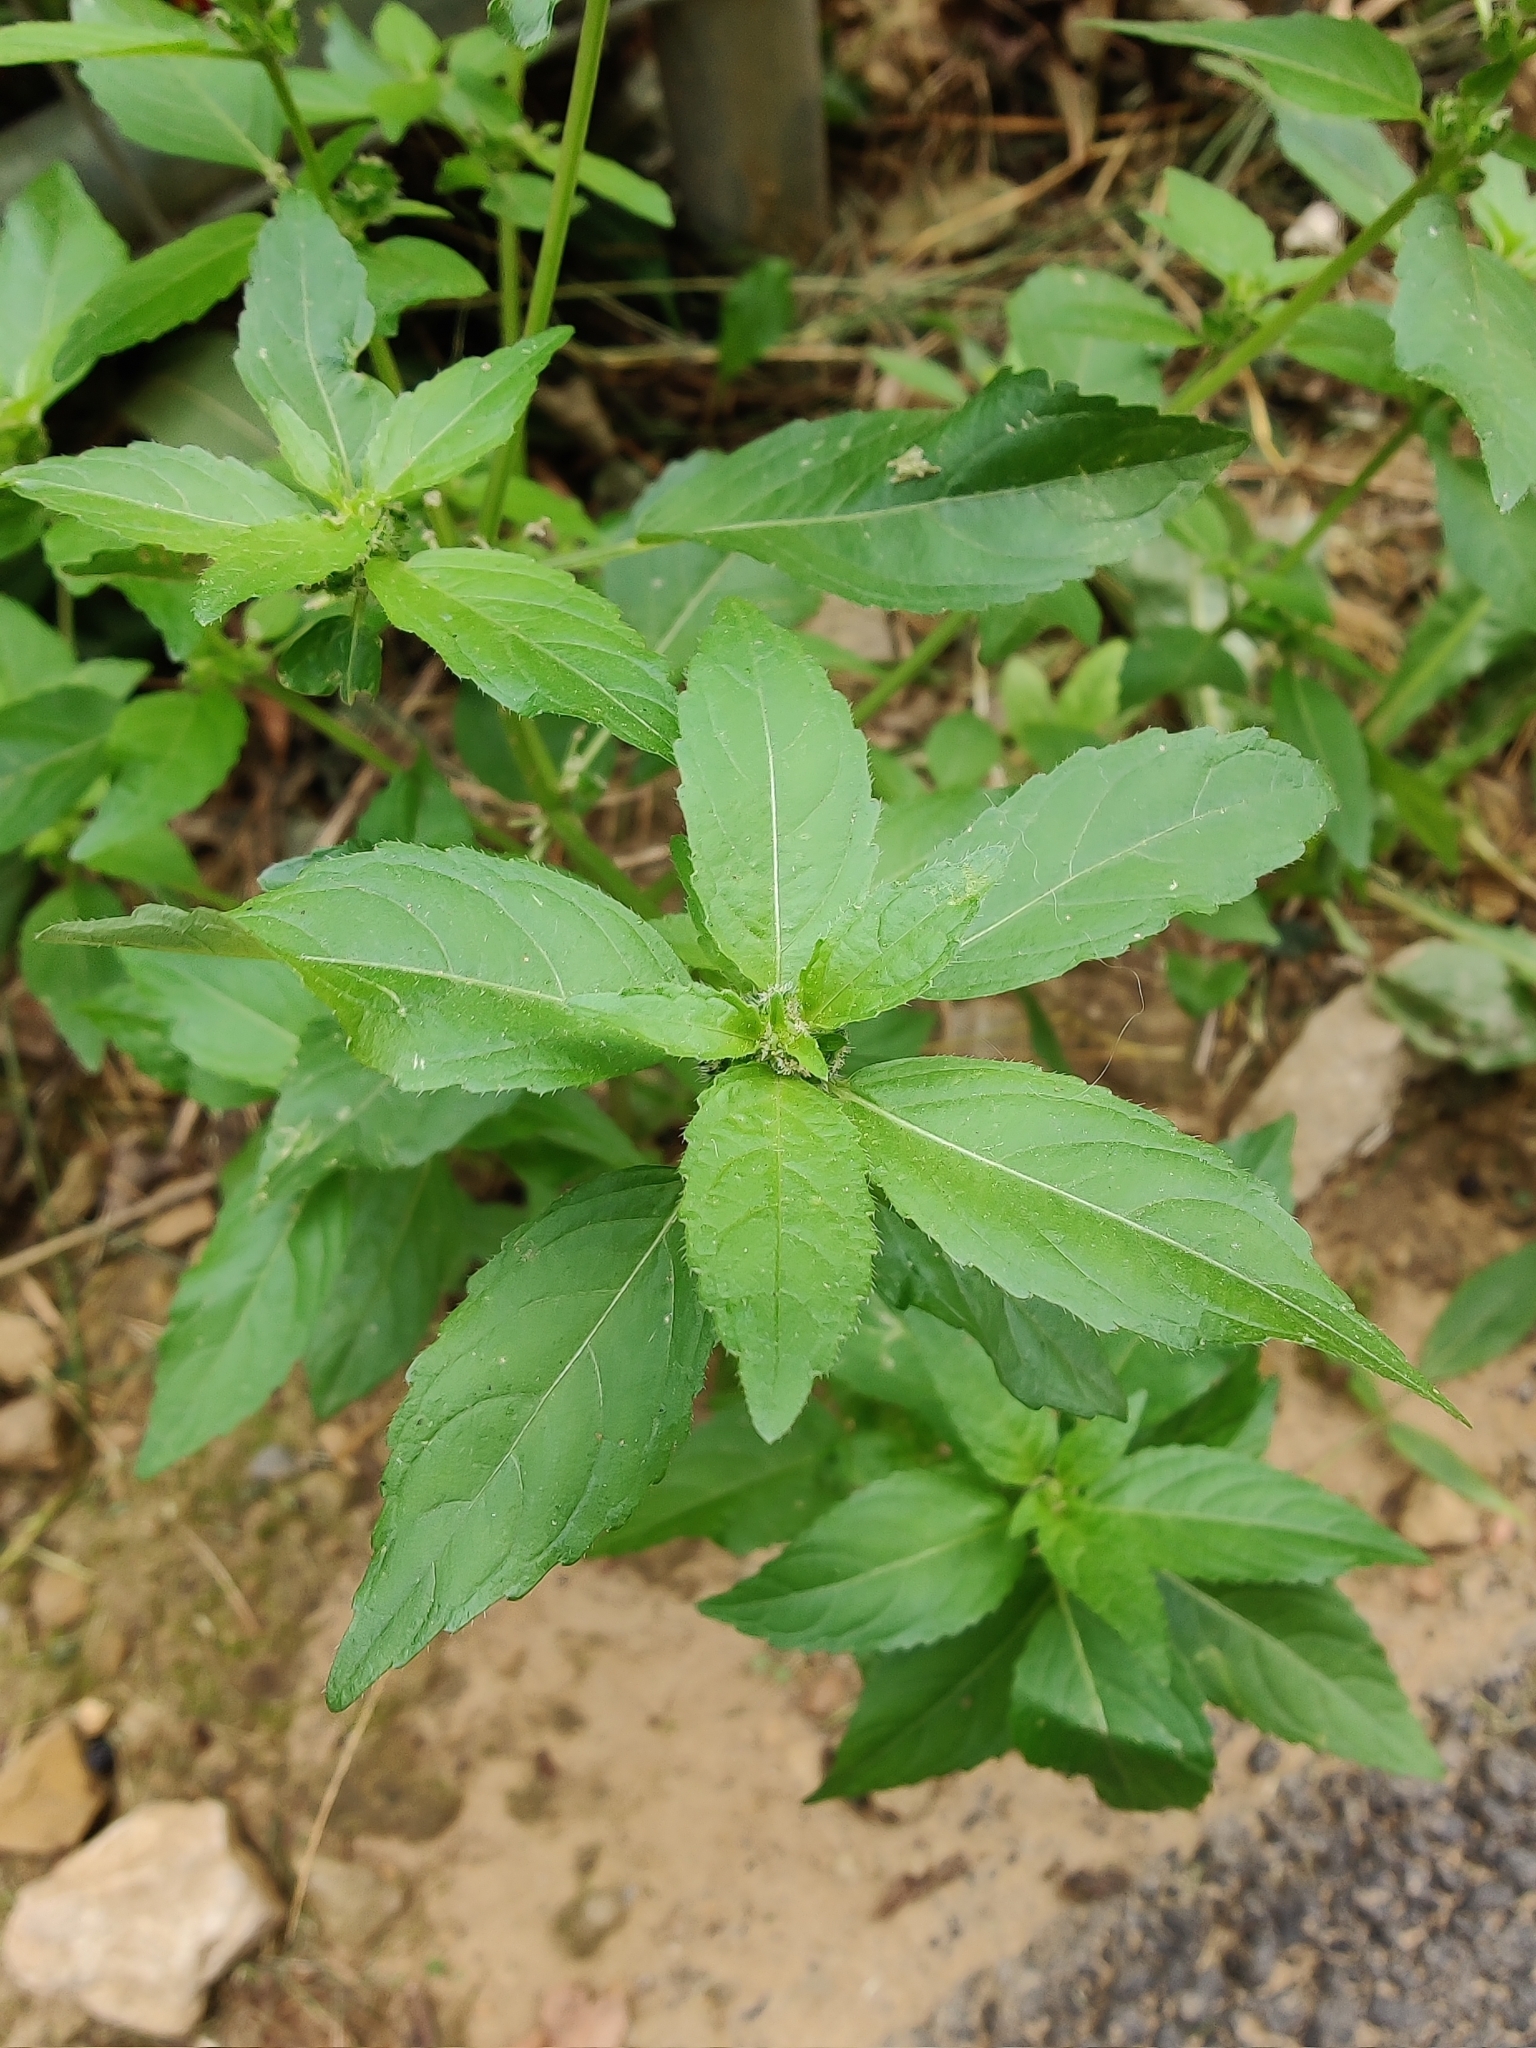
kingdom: Plantae
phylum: Tracheophyta
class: Magnoliopsida
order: Malpighiales
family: Euphorbiaceae
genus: Mercurialis
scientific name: Mercurialis annua
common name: Annual mercury
